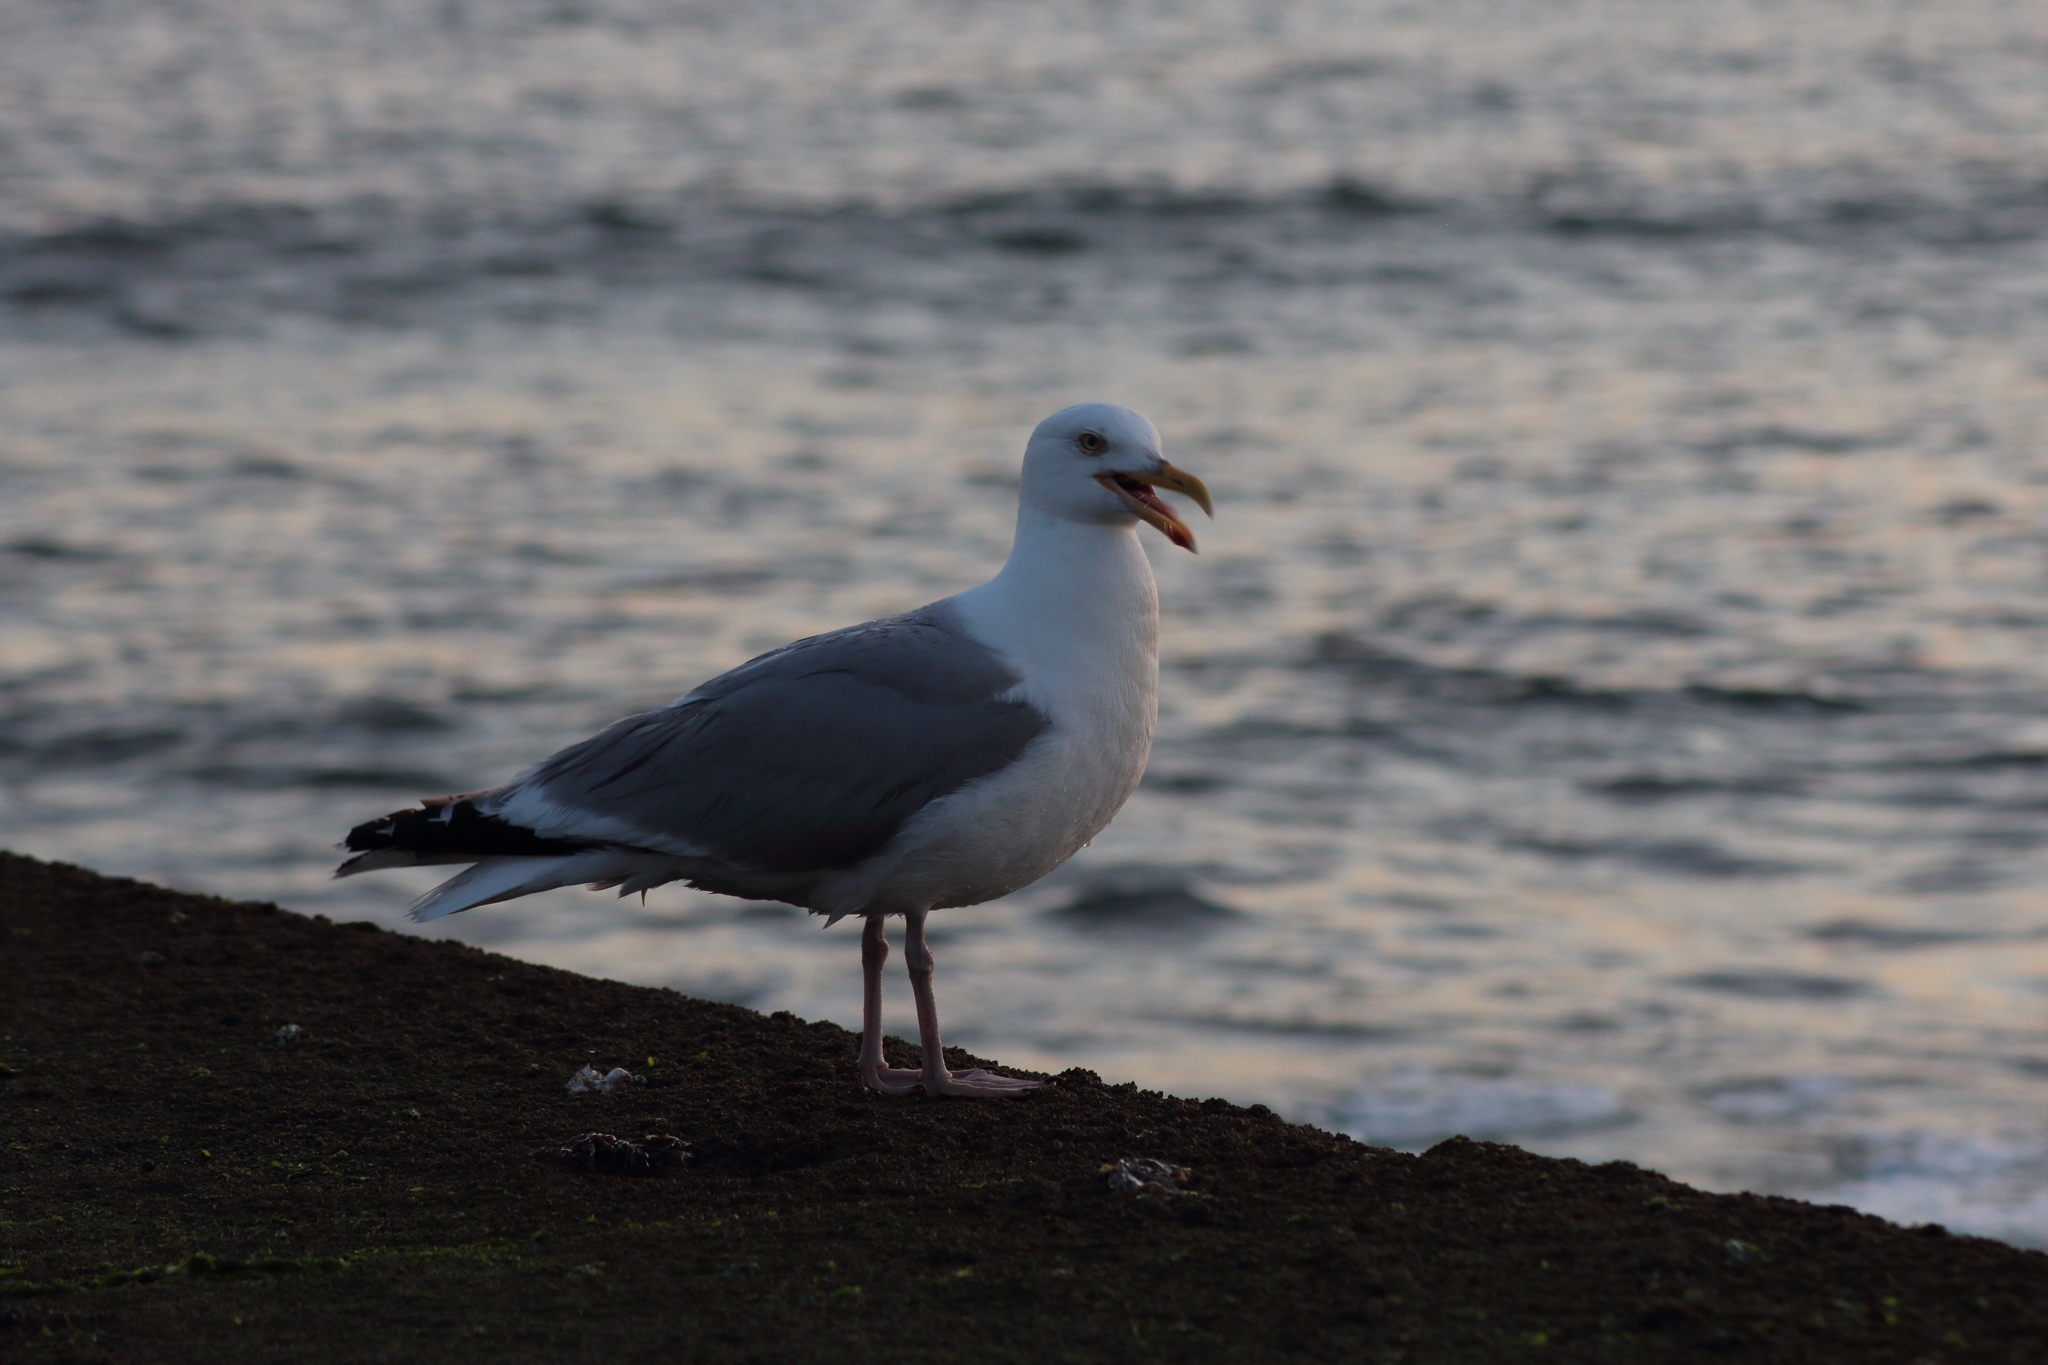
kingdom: Animalia
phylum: Chordata
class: Aves
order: Charadriiformes
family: Laridae
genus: Larus
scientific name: Larus argentatus
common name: Herring gull
